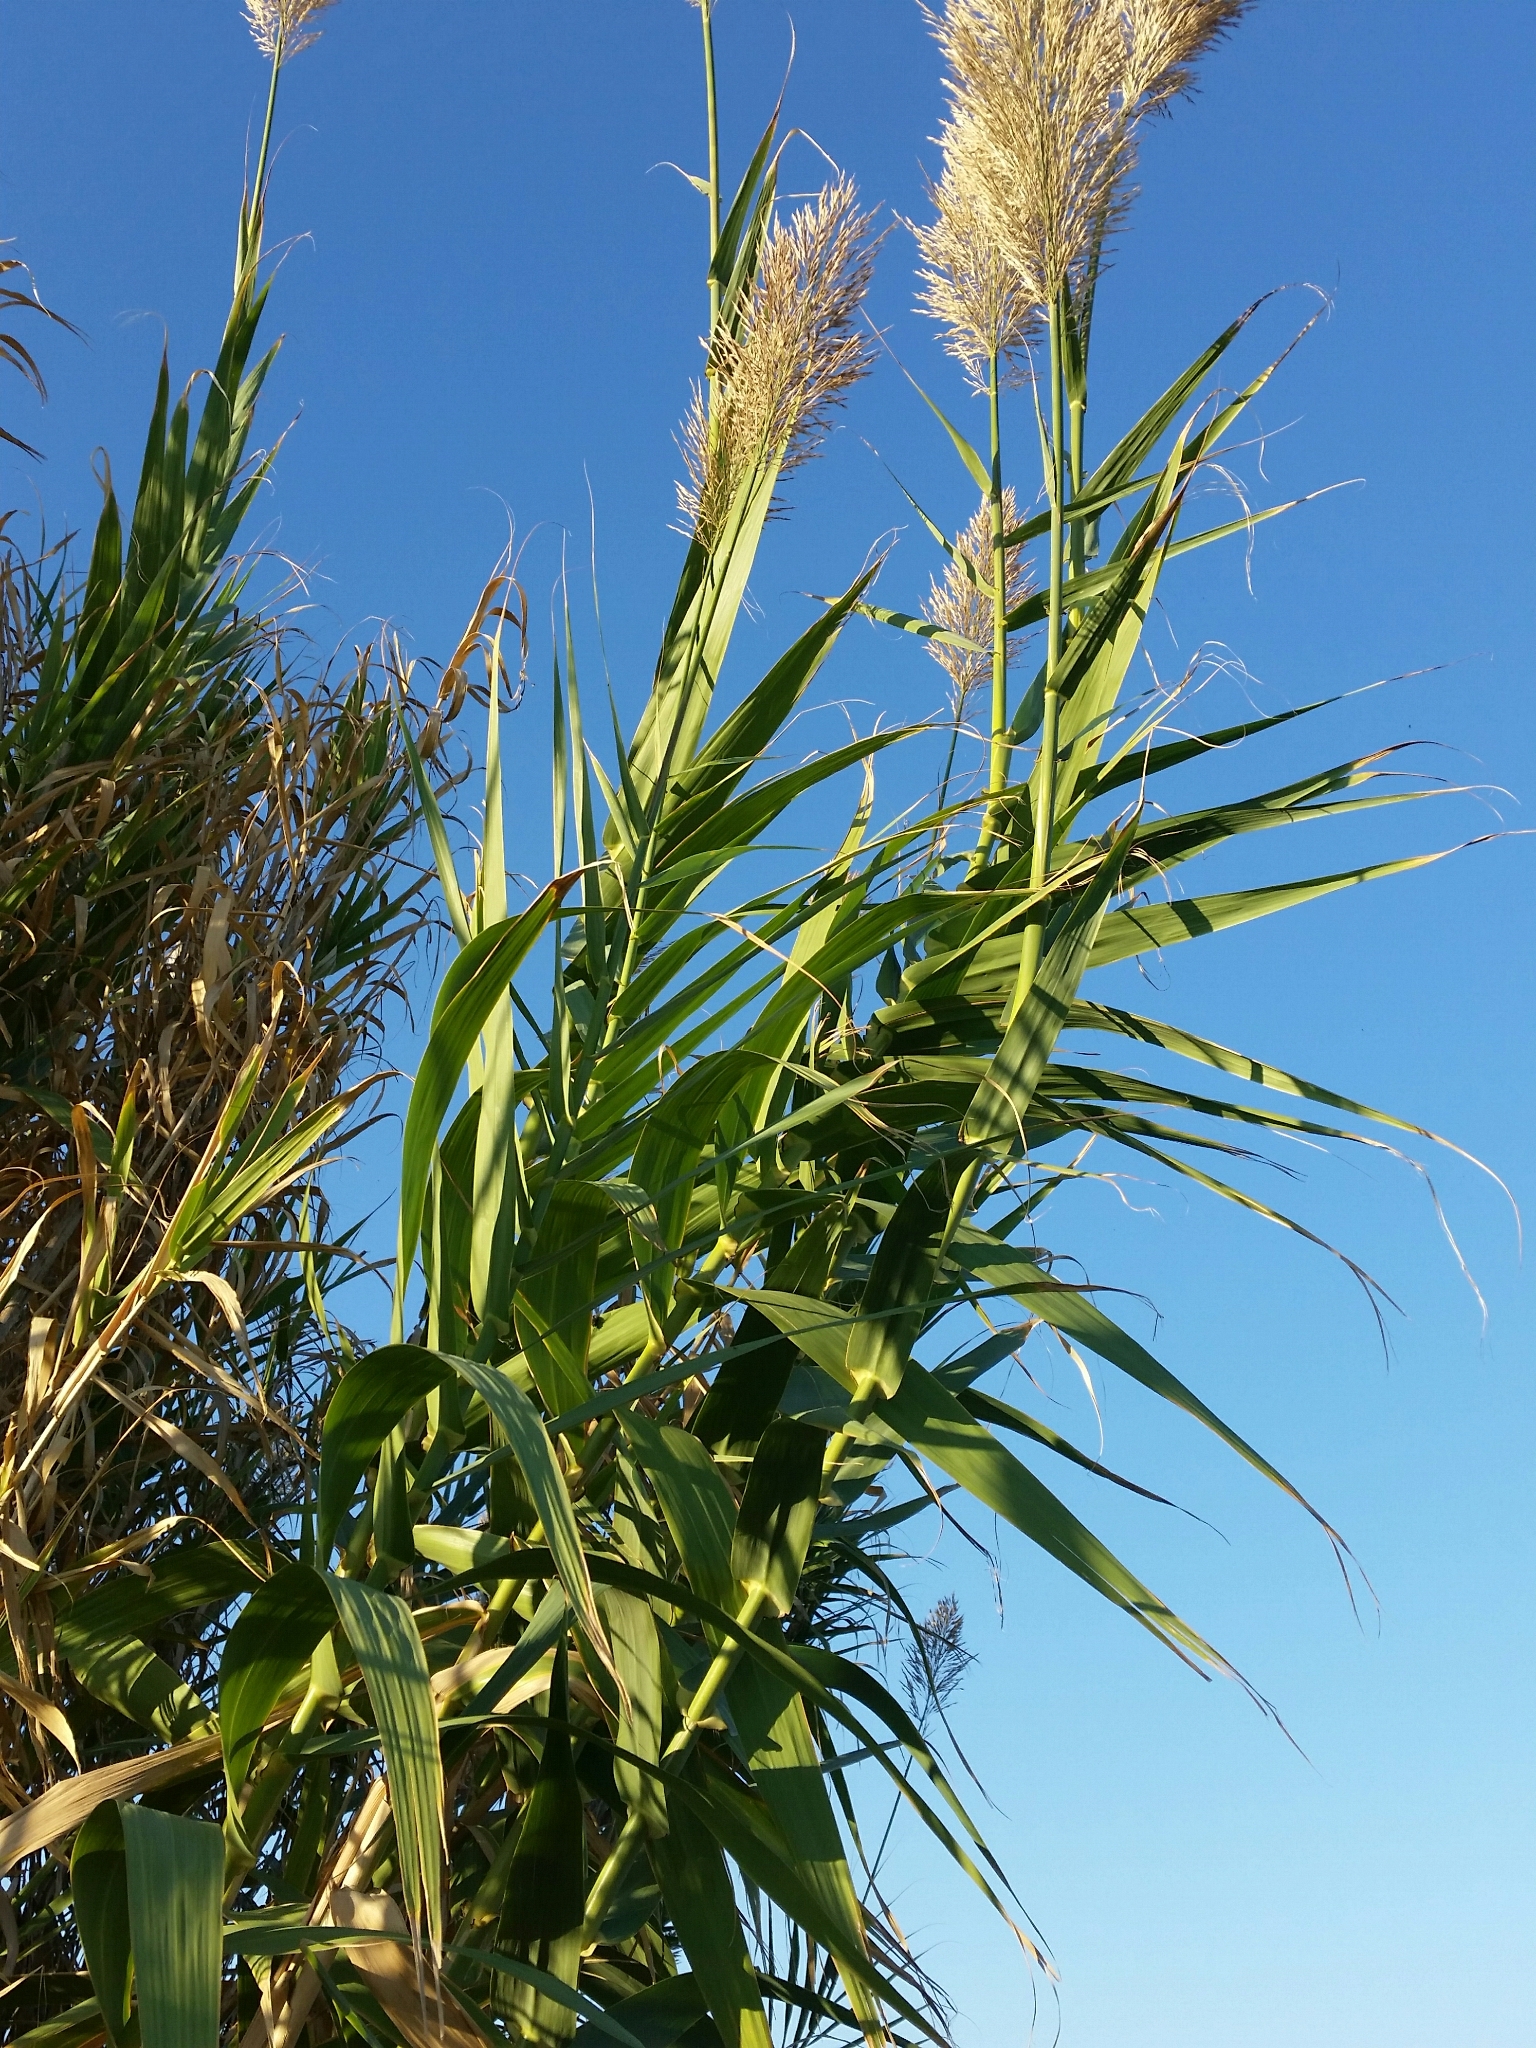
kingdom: Plantae
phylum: Tracheophyta
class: Liliopsida
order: Poales
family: Poaceae
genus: Arundo
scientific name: Arundo donax
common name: Giant reed
